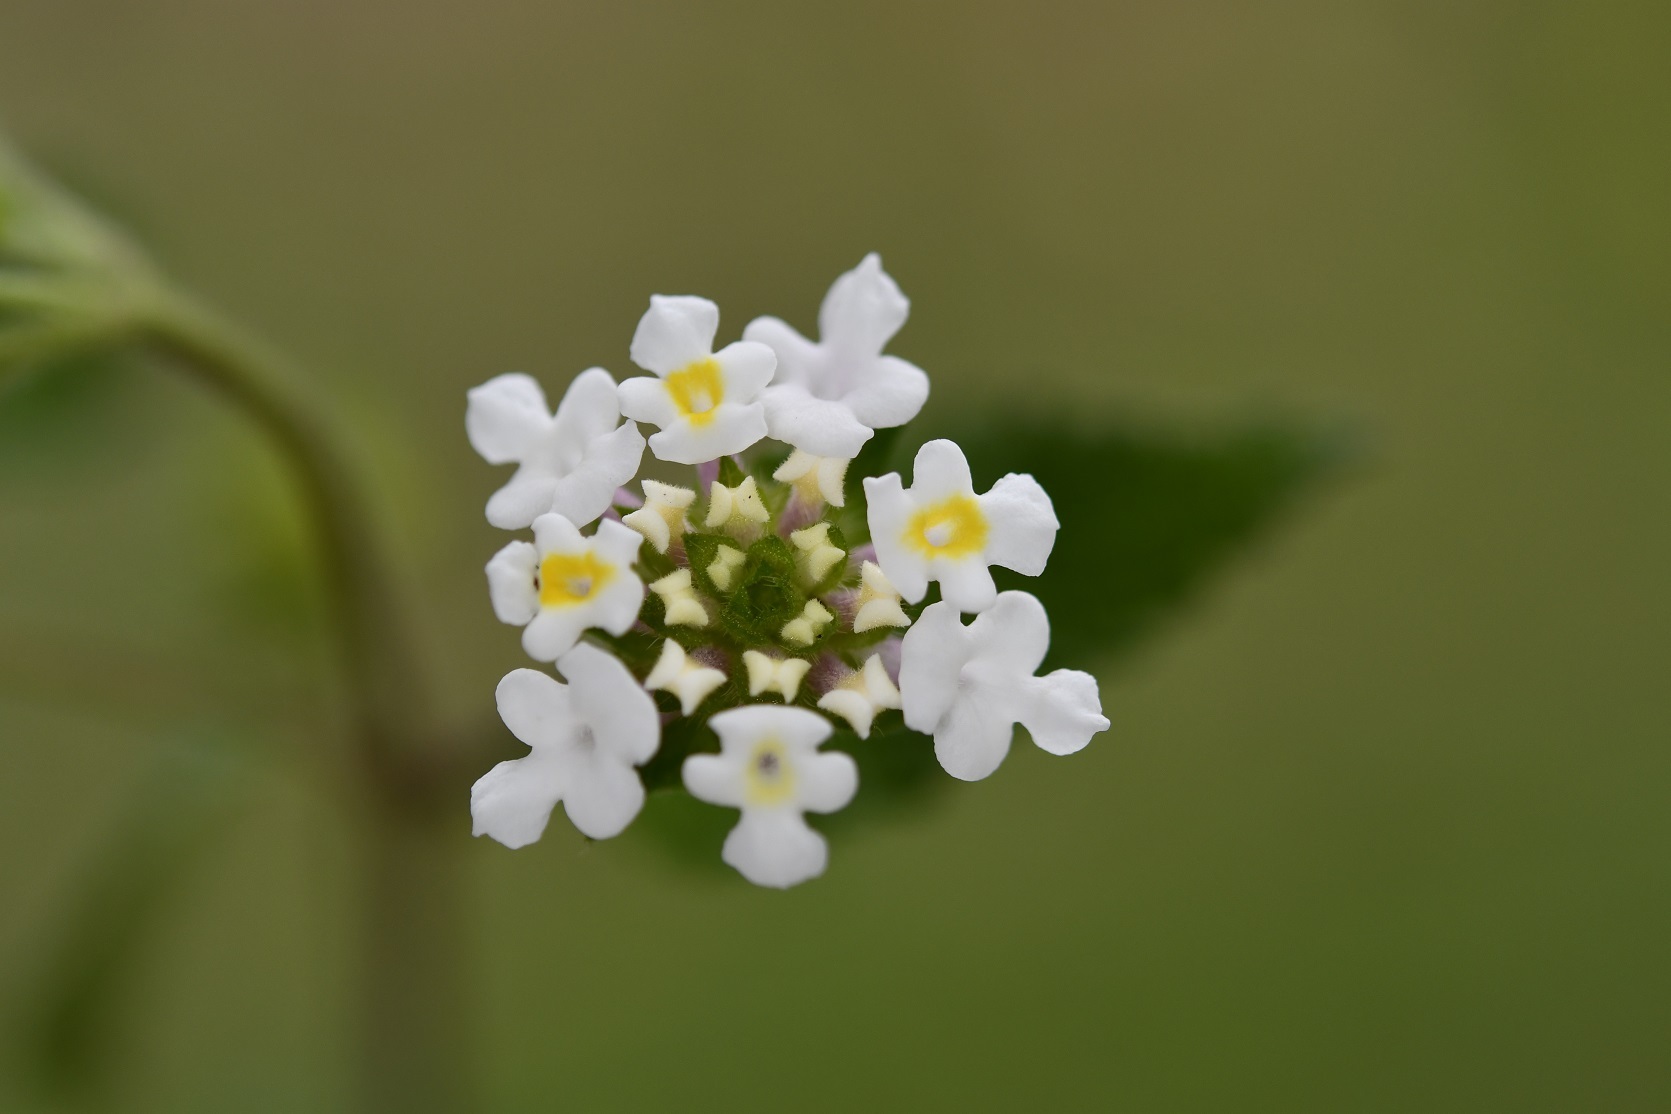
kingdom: Plantae
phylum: Tracheophyta
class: Magnoliopsida
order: Lamiales
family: Verbenaceae
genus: Lantana
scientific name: Lantana hirta
